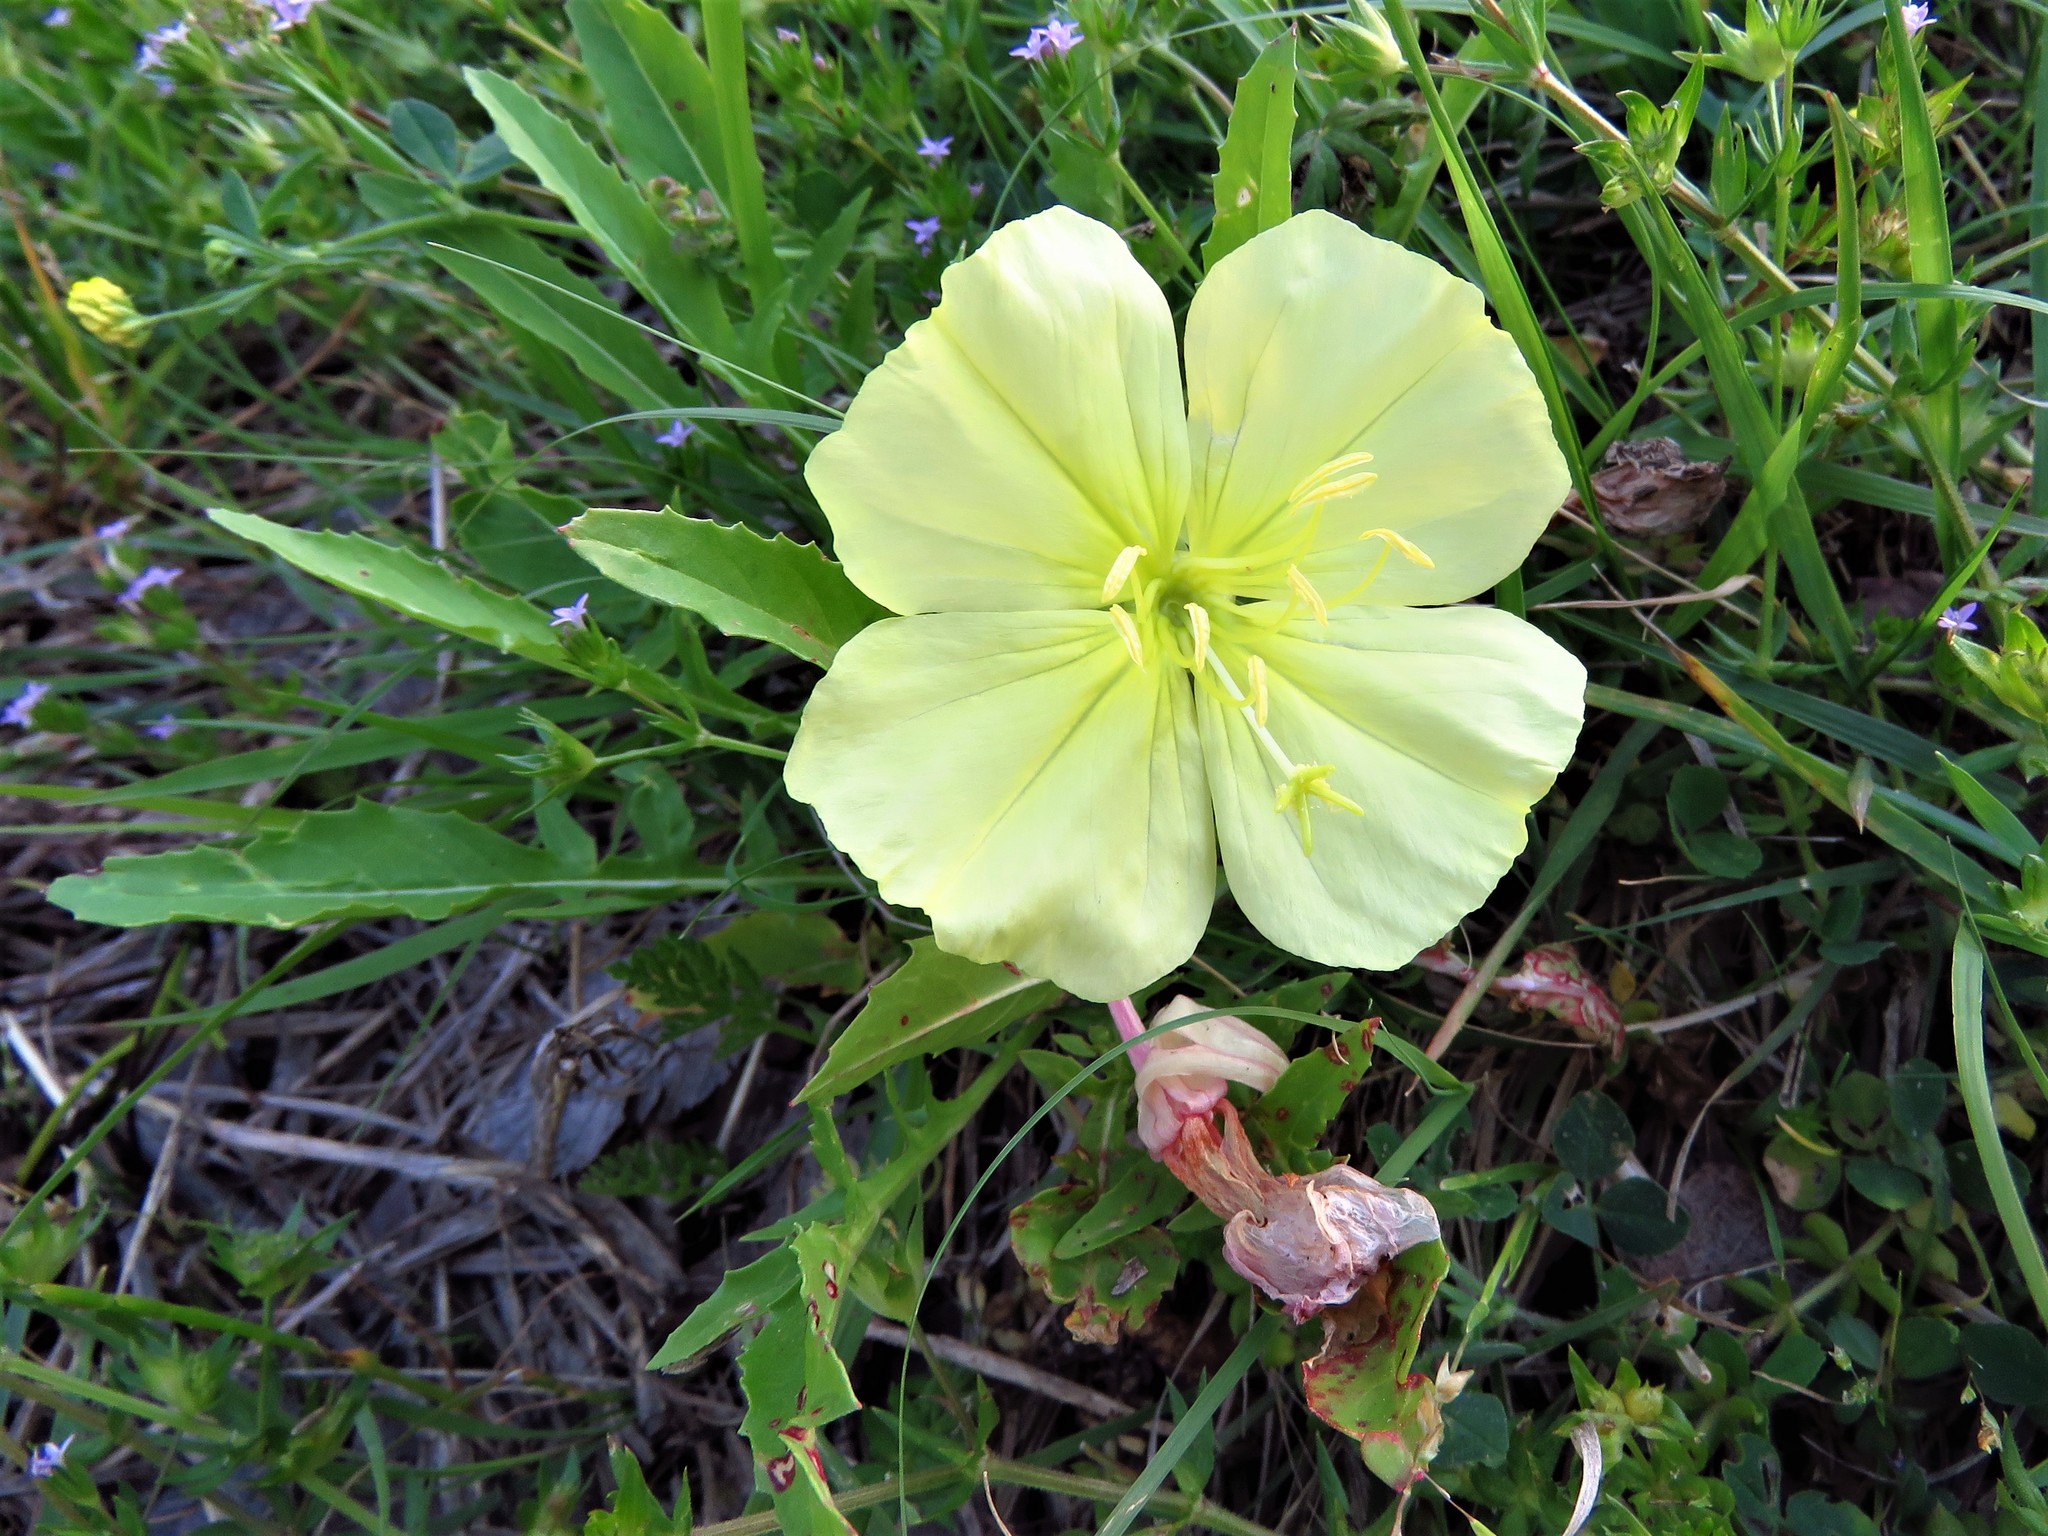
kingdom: Plantae
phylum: Tracheophyta
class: Magnoliopsida
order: Myrtales
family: Onagraceae
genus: Oenothera
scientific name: Oenothera triloba
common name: Sessile evening-primrose
